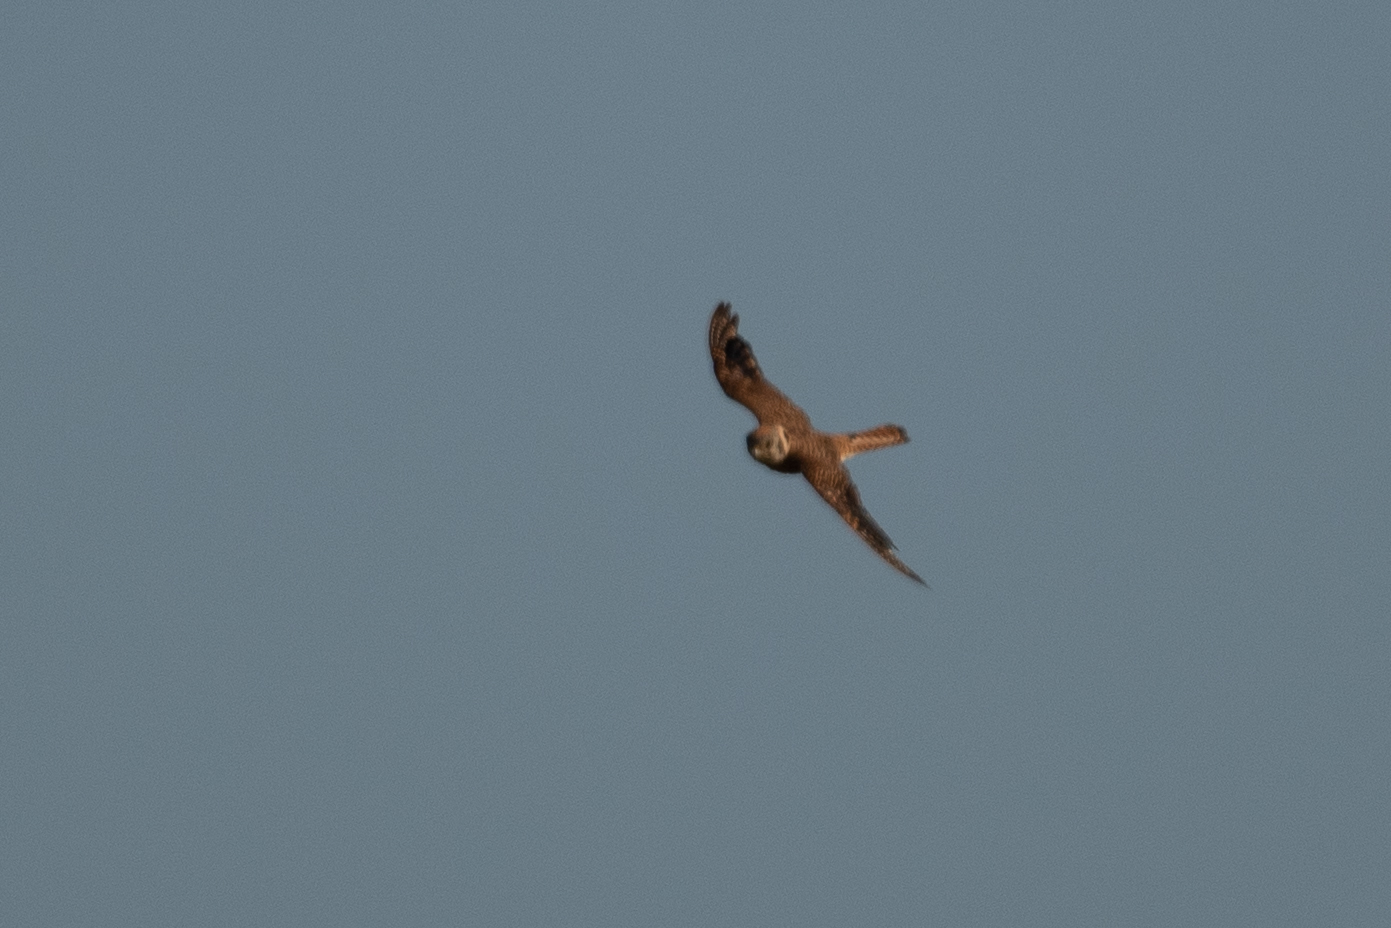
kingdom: Animalia
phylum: Chordata
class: Aves
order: Falconiformes
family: Falconidae
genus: Falco
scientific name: Falco sparverius
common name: American kestrel
